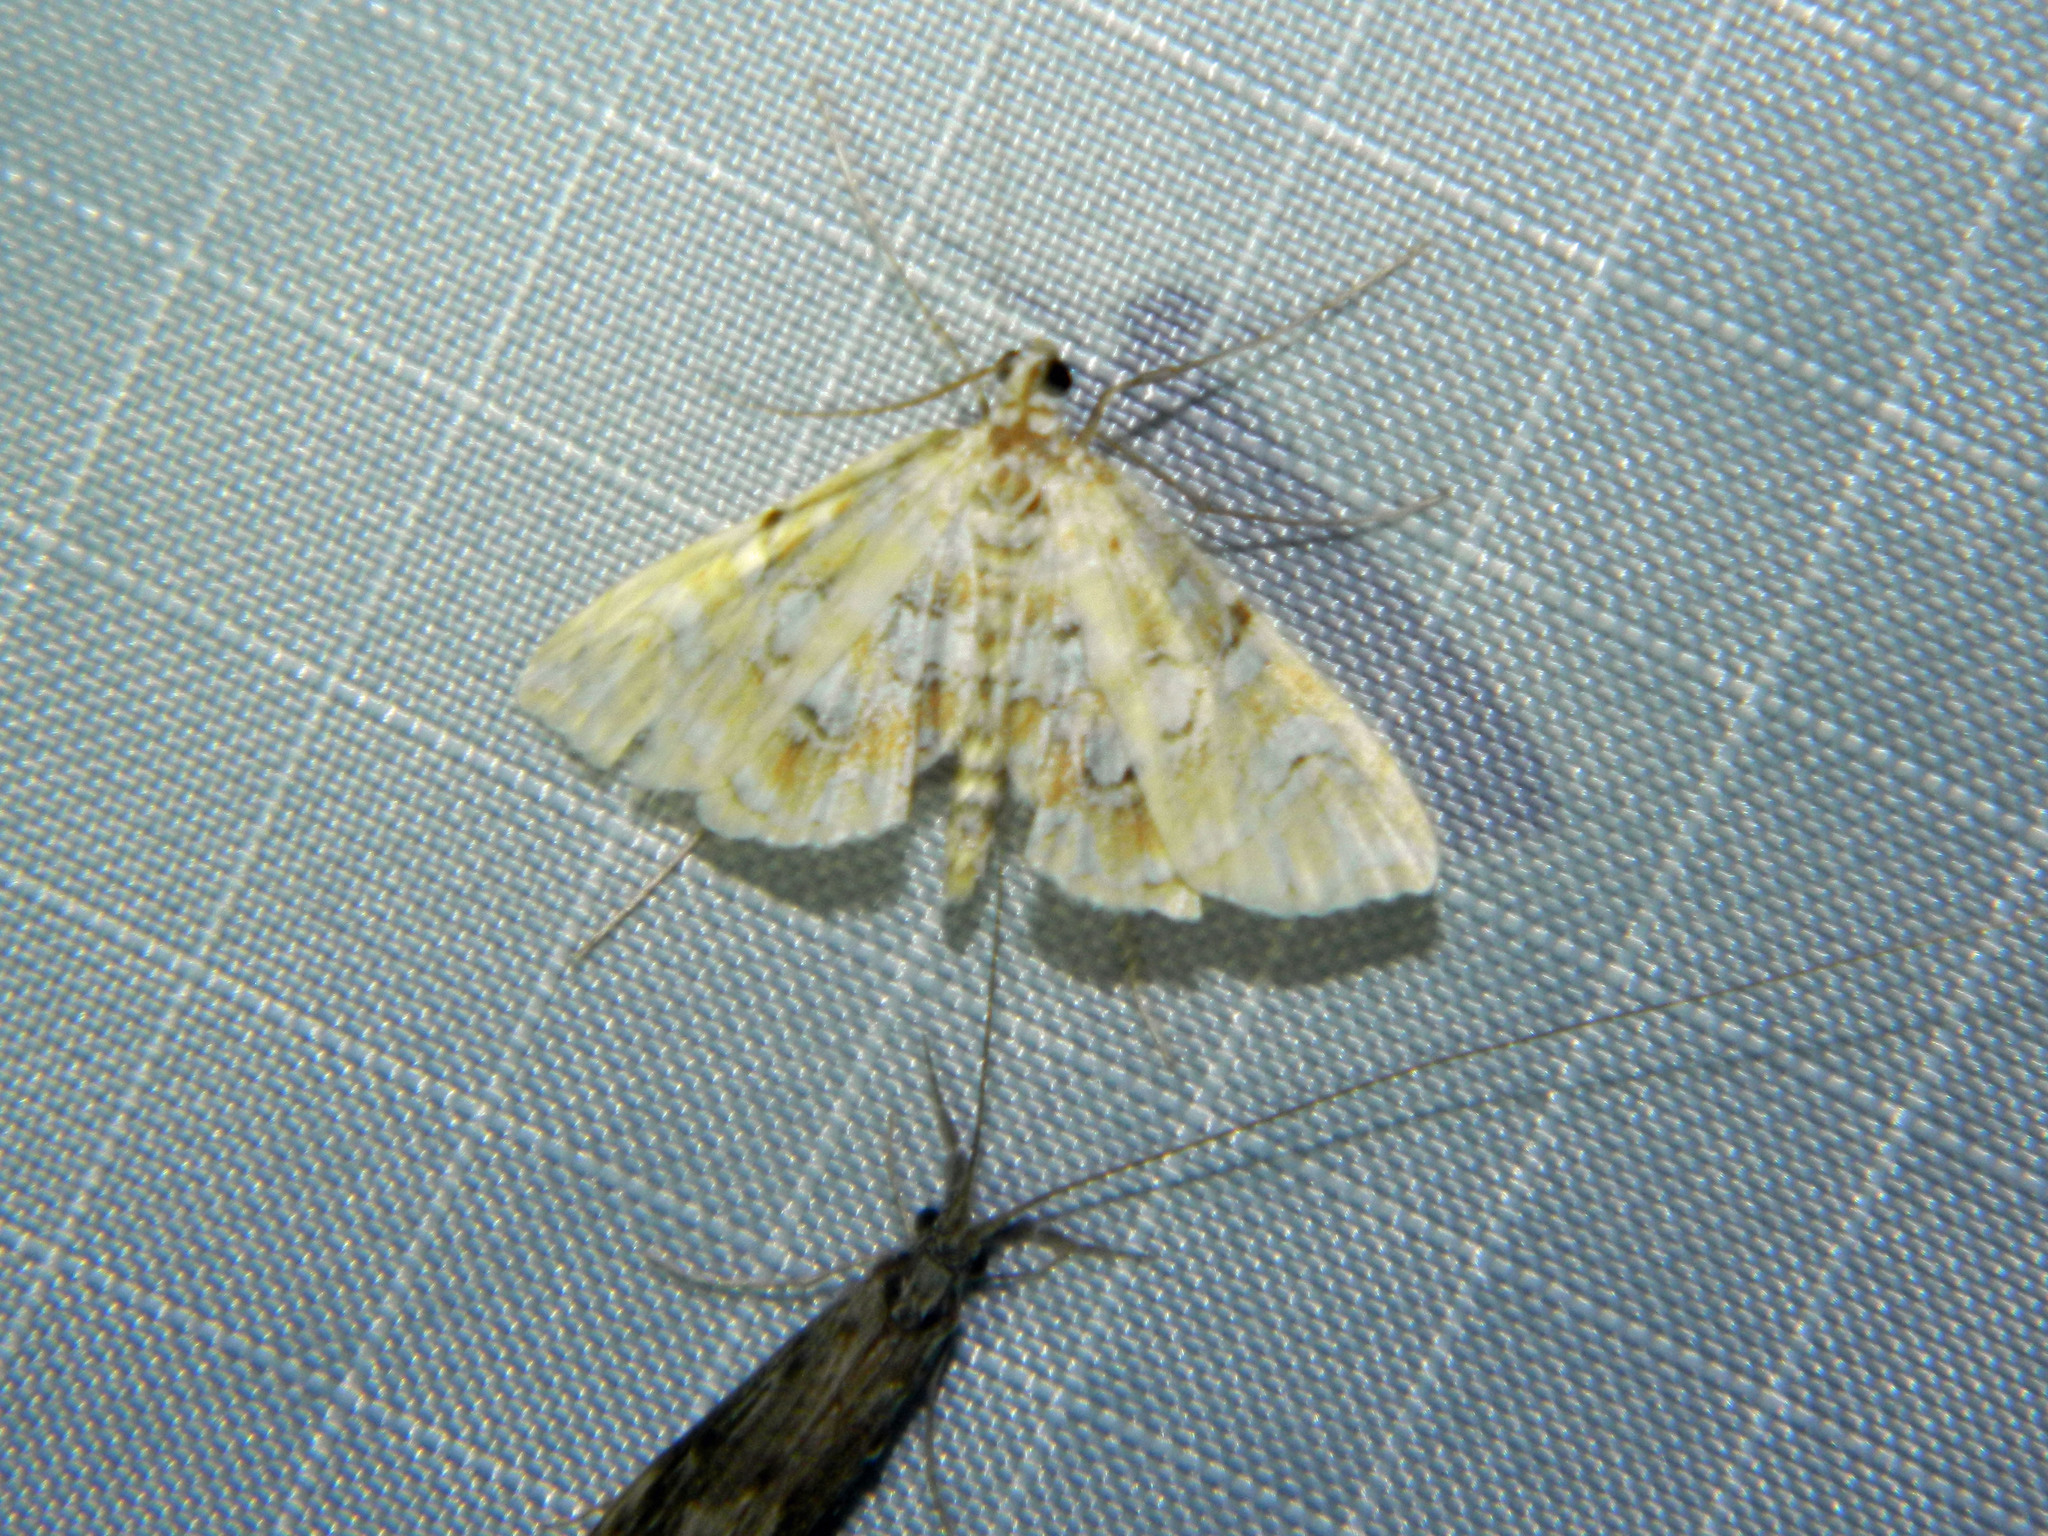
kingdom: Animalia
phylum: Arthropoda
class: Insecta
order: Lepidoptera
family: Crambidae
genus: Elophila
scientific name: Elophila icciusalis
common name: Pondside pyralid moth
